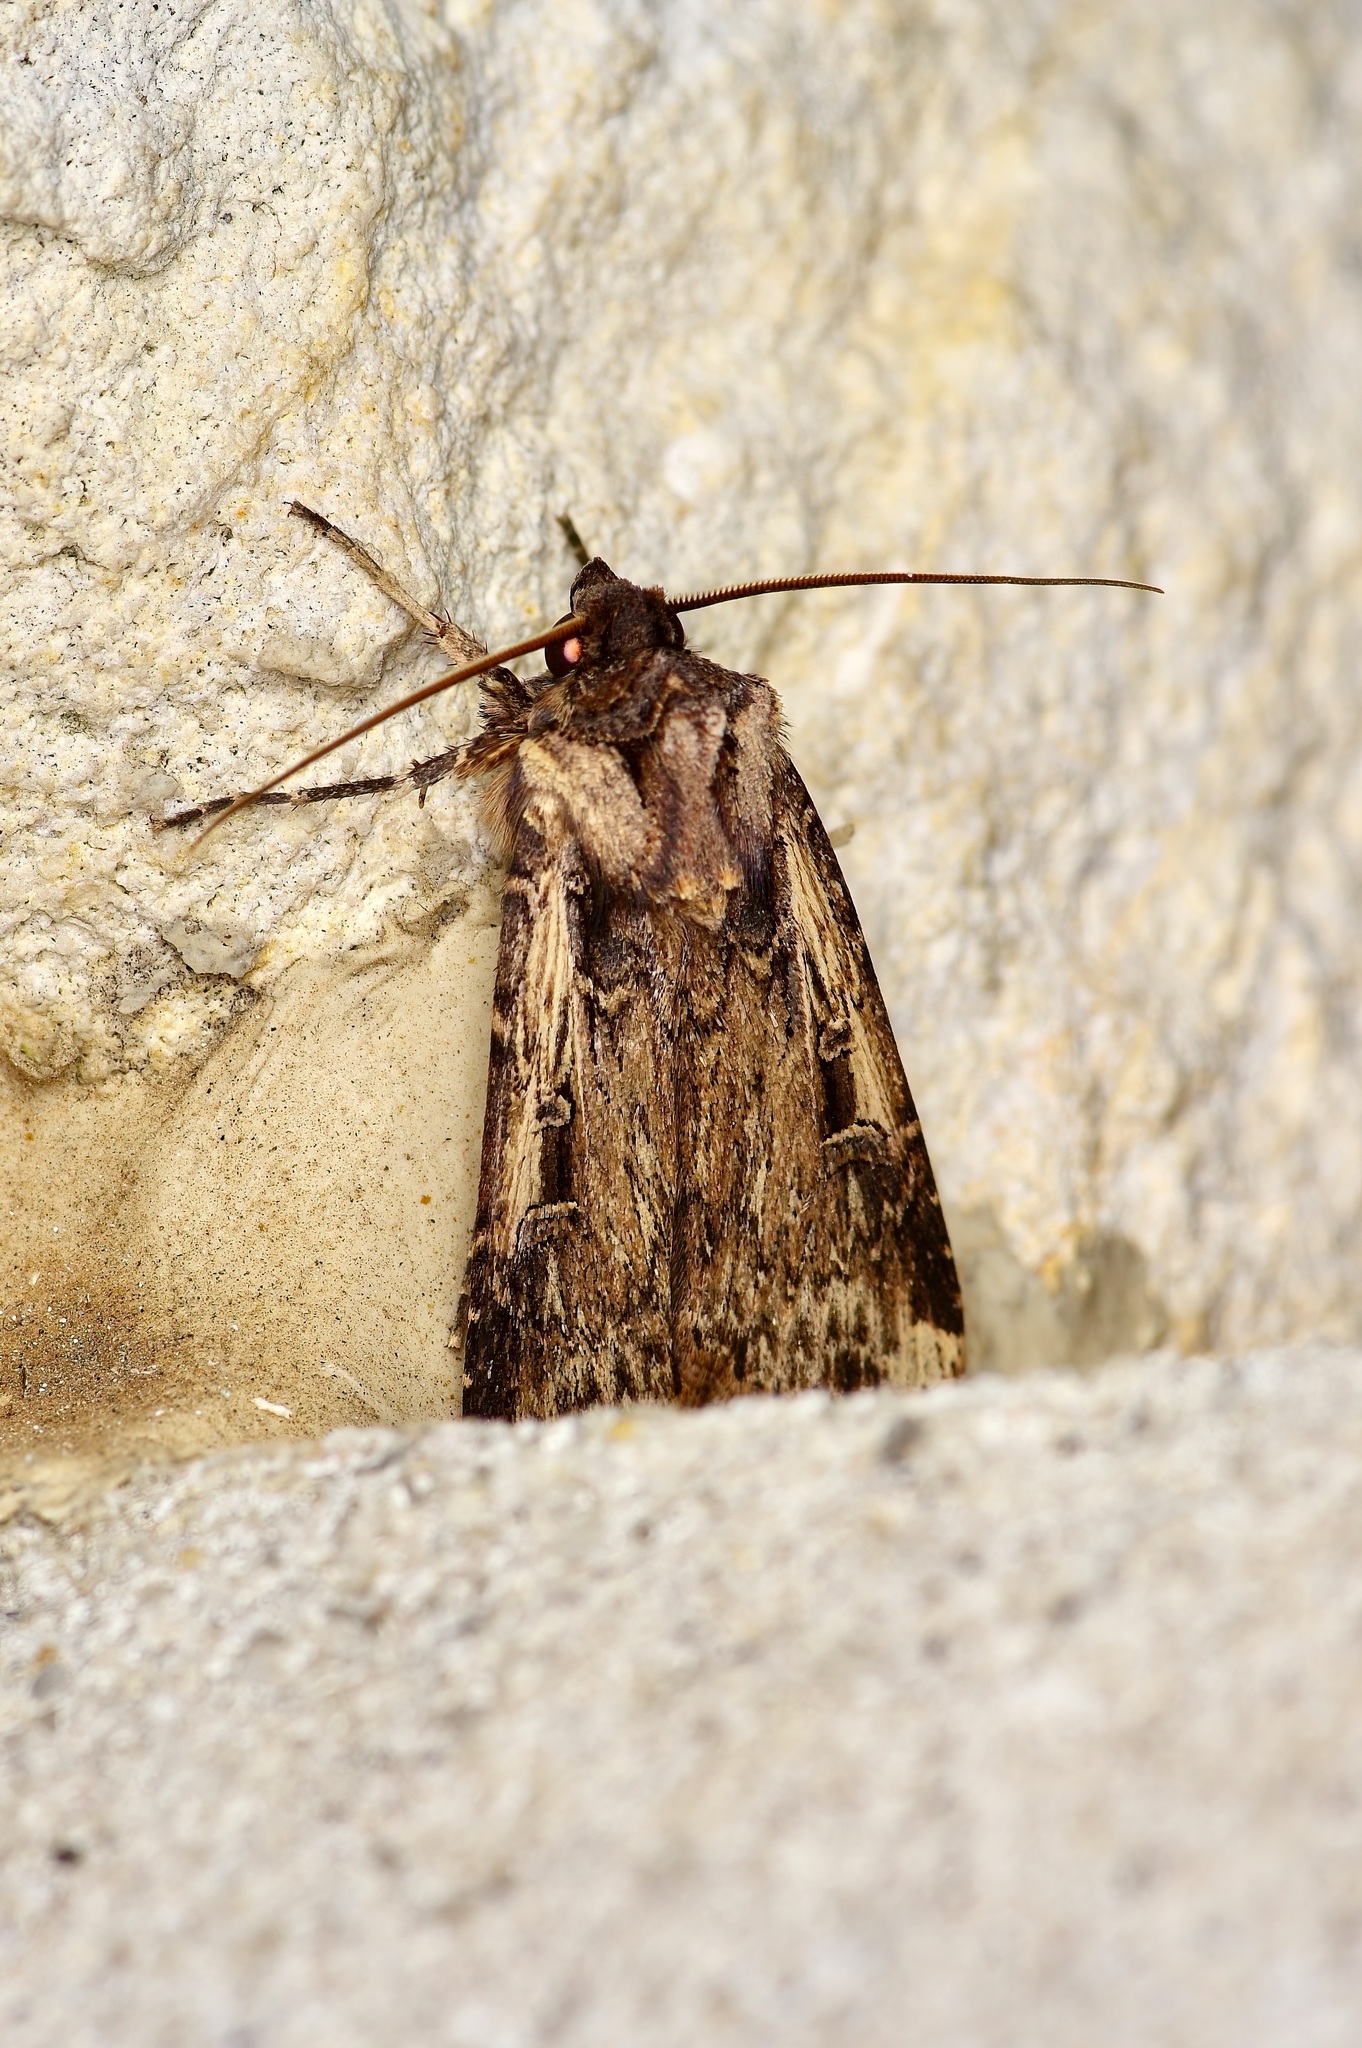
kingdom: Animalia
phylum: Arthropoda
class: Insecta
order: Lepidoptera
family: Noctuidae
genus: Feltia
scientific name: Feltia subterranea
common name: Granulate cutworm
